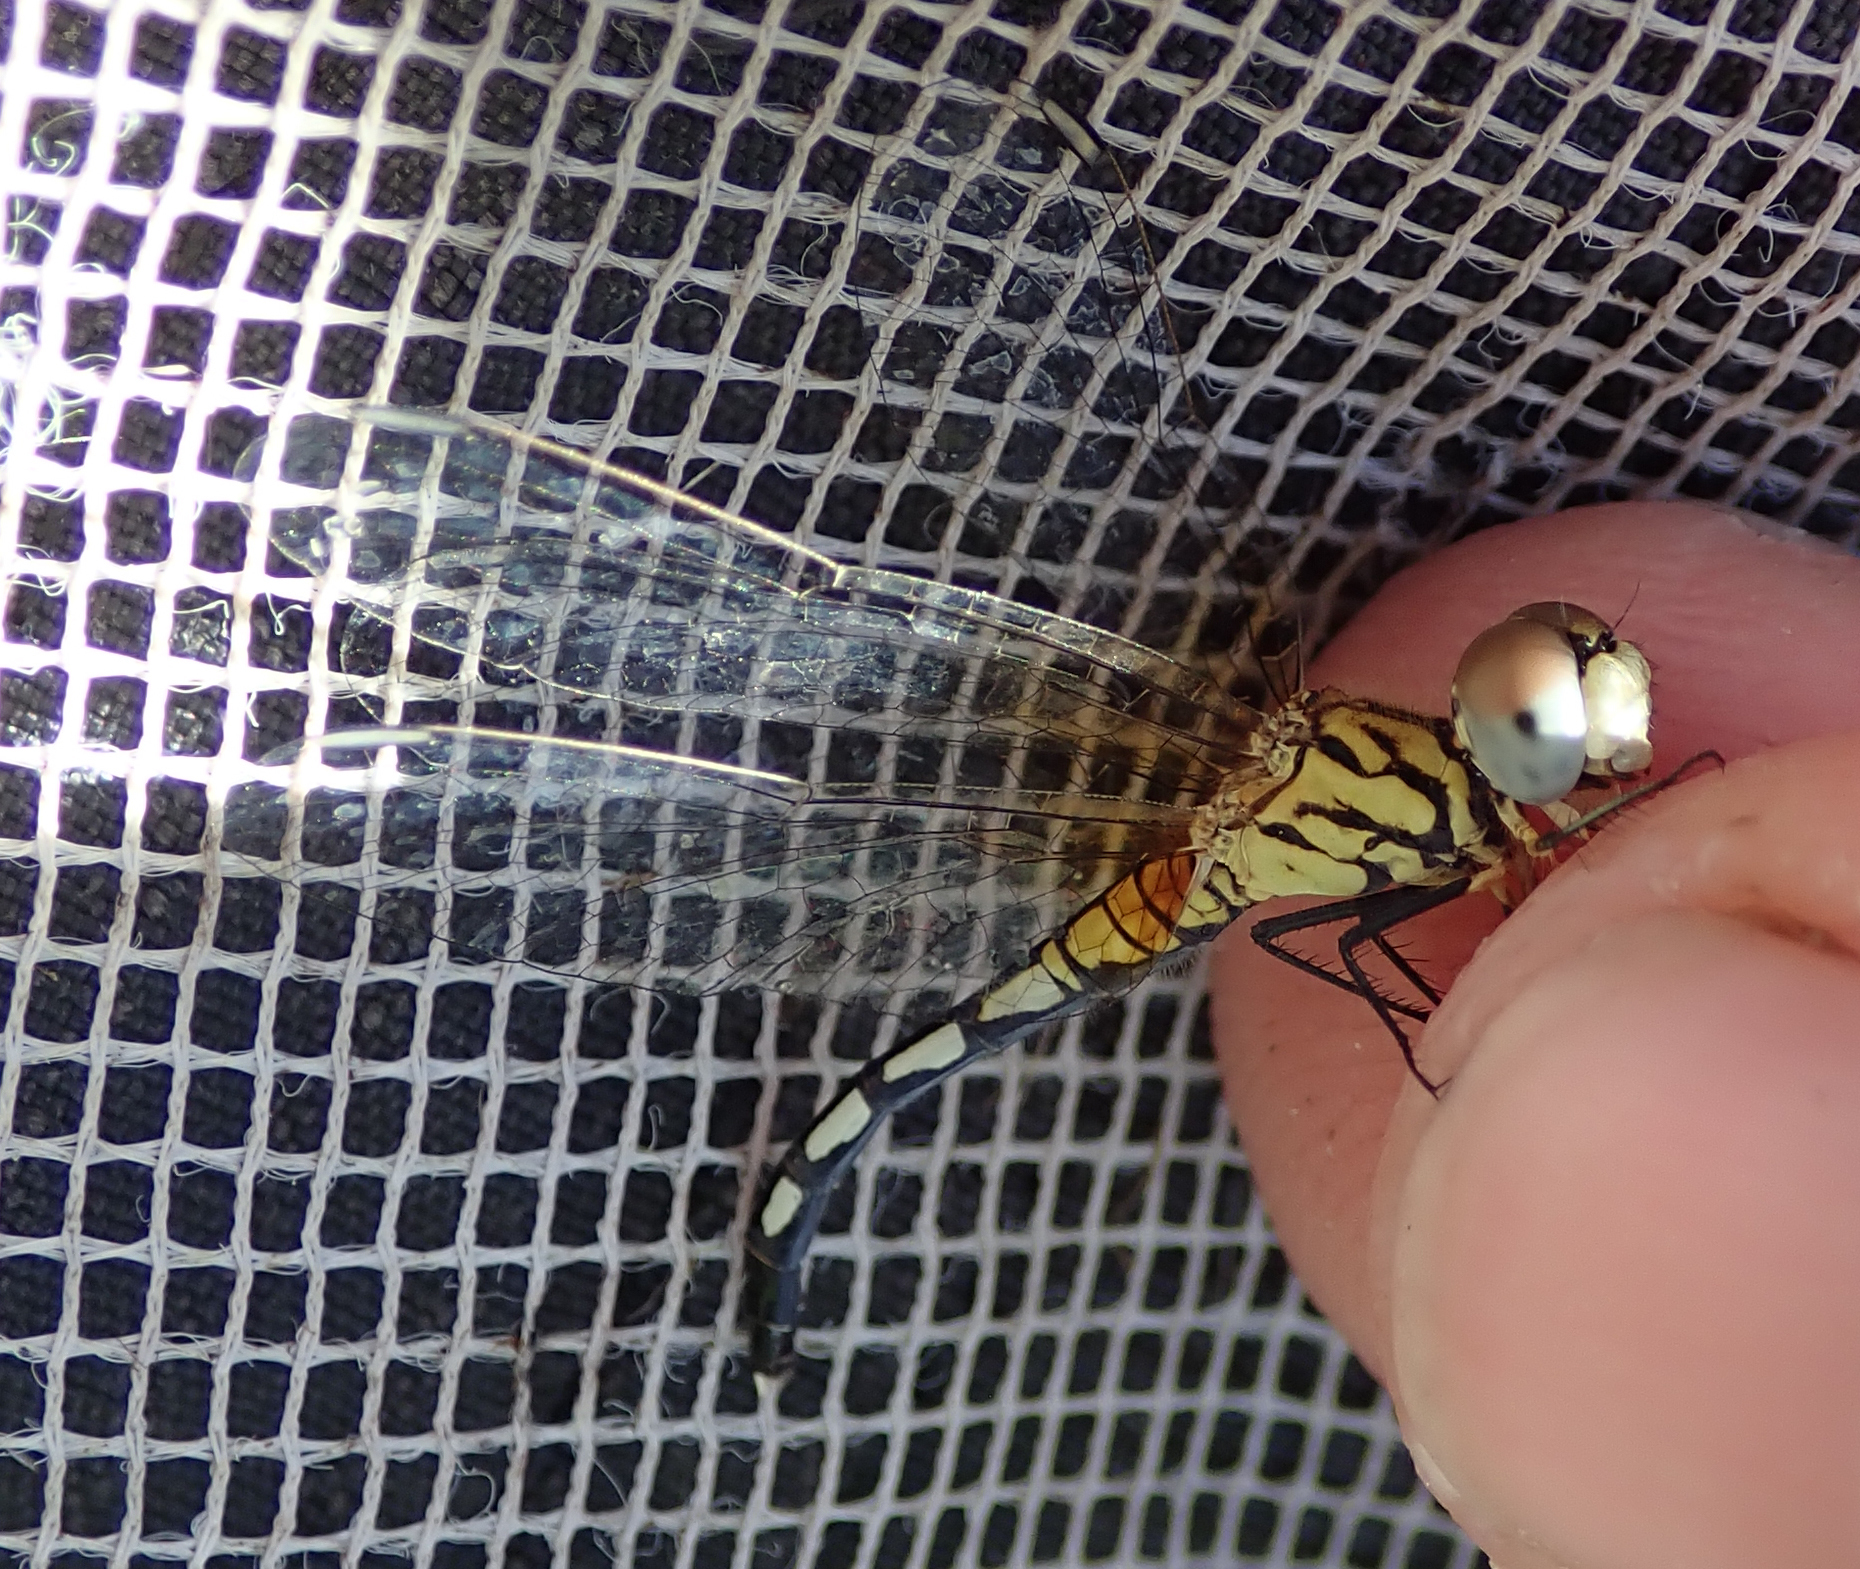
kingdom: Animalia
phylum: Arthropoda
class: Insecta
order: Odonata
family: Libellulidae
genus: Diplacodes
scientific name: Diplacodes lefebvrii
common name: Black percher
